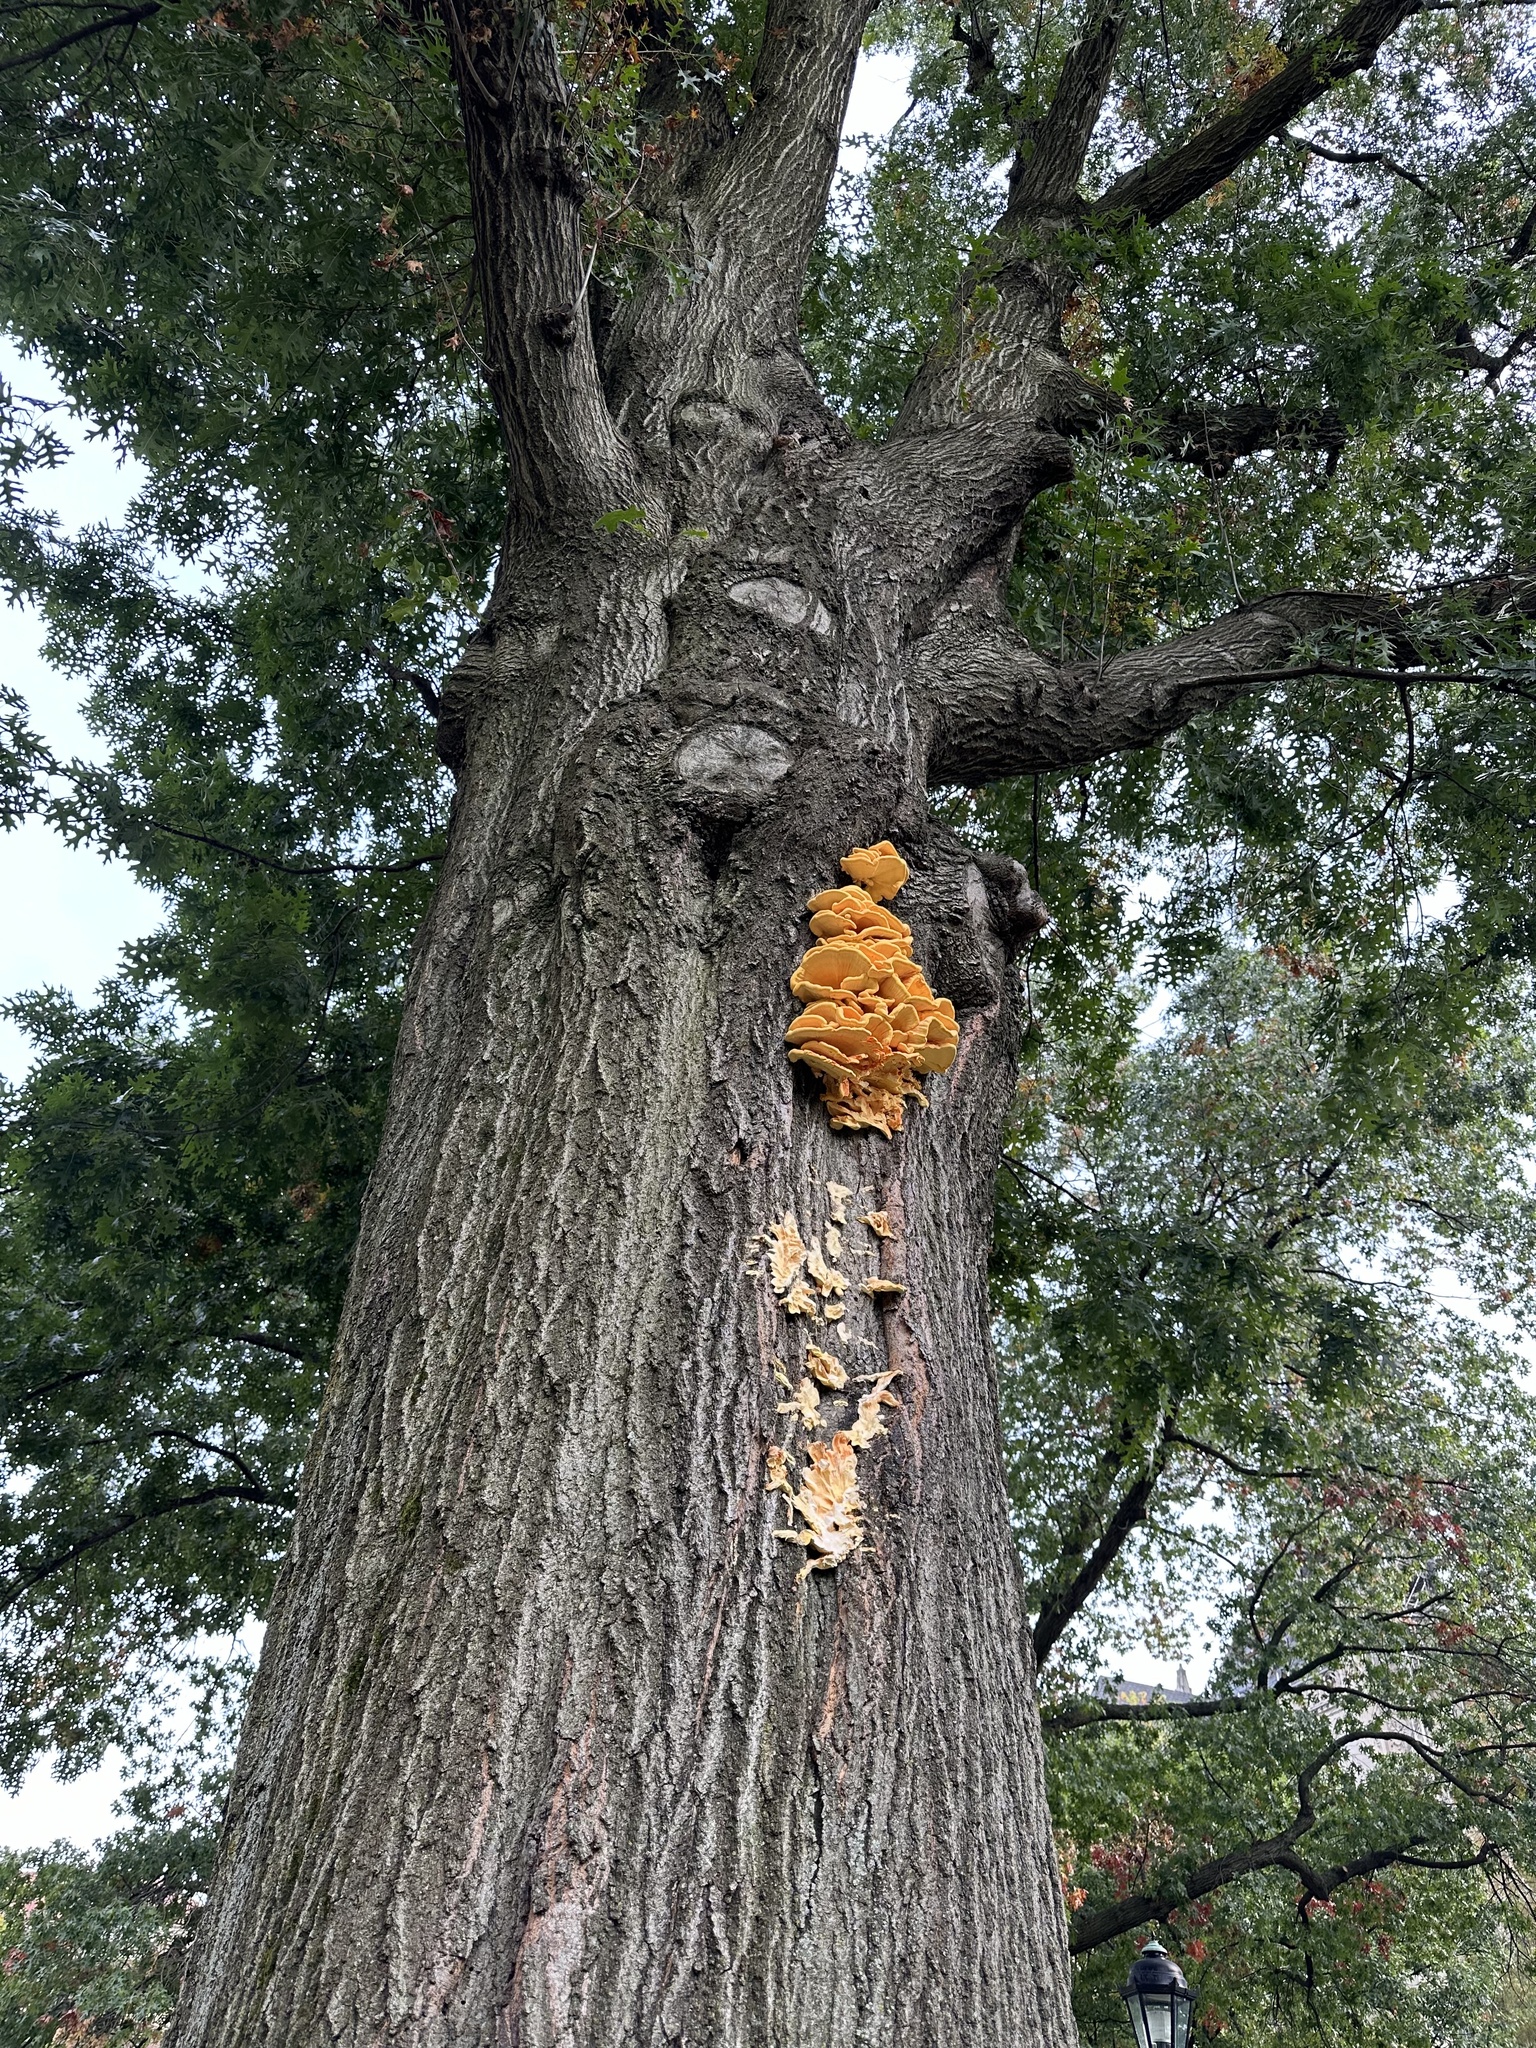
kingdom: Fungi
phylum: Basidiomycota
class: Agaricomycetes
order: Polyporales
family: Laetiporaceae
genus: Laetiporus
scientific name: Laetiporus sulphureus
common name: Chicken of the woods
